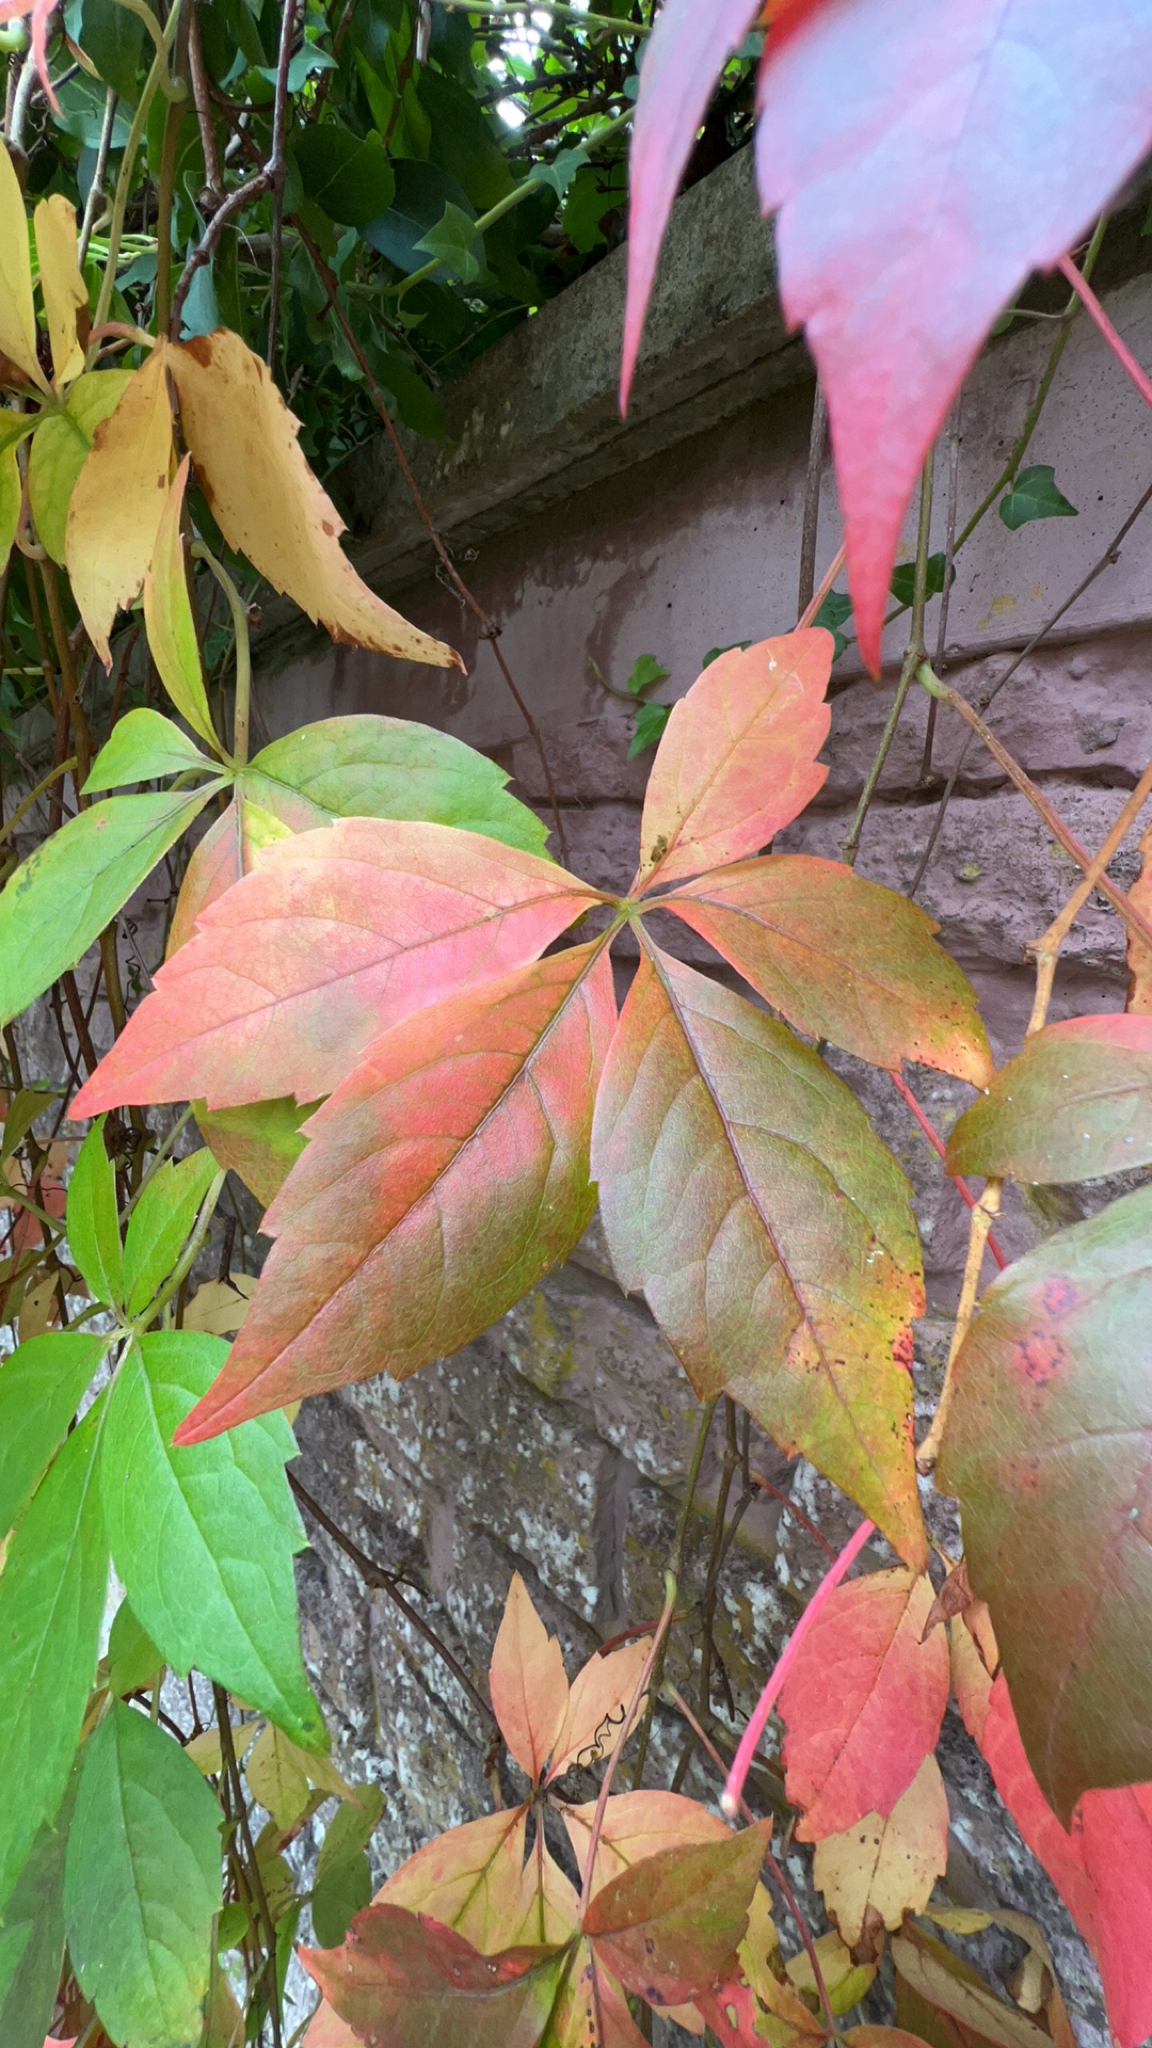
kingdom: Plantae
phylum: Tracheophyta
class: Magnoliopsida
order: Vitales
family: Vitaceae
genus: Parthenocissus
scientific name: Parthenocissus quinquefolia
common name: Virginia-creeper
